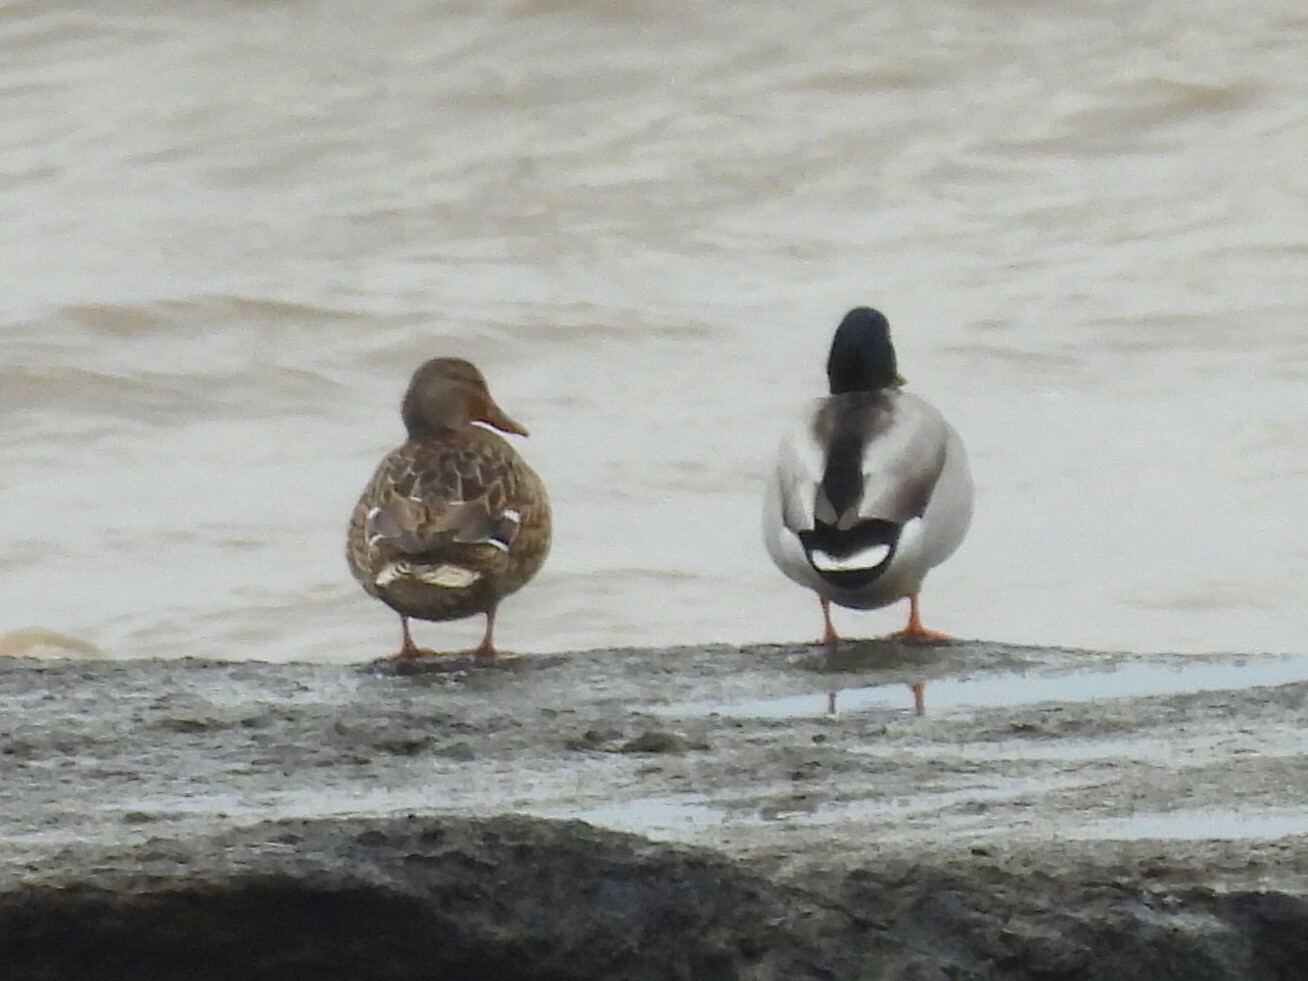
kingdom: Animalia
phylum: Chordata
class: Aves
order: Anseriformes
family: Anatidae
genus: Anas
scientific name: Anas platyrhynchos
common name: Mallard
